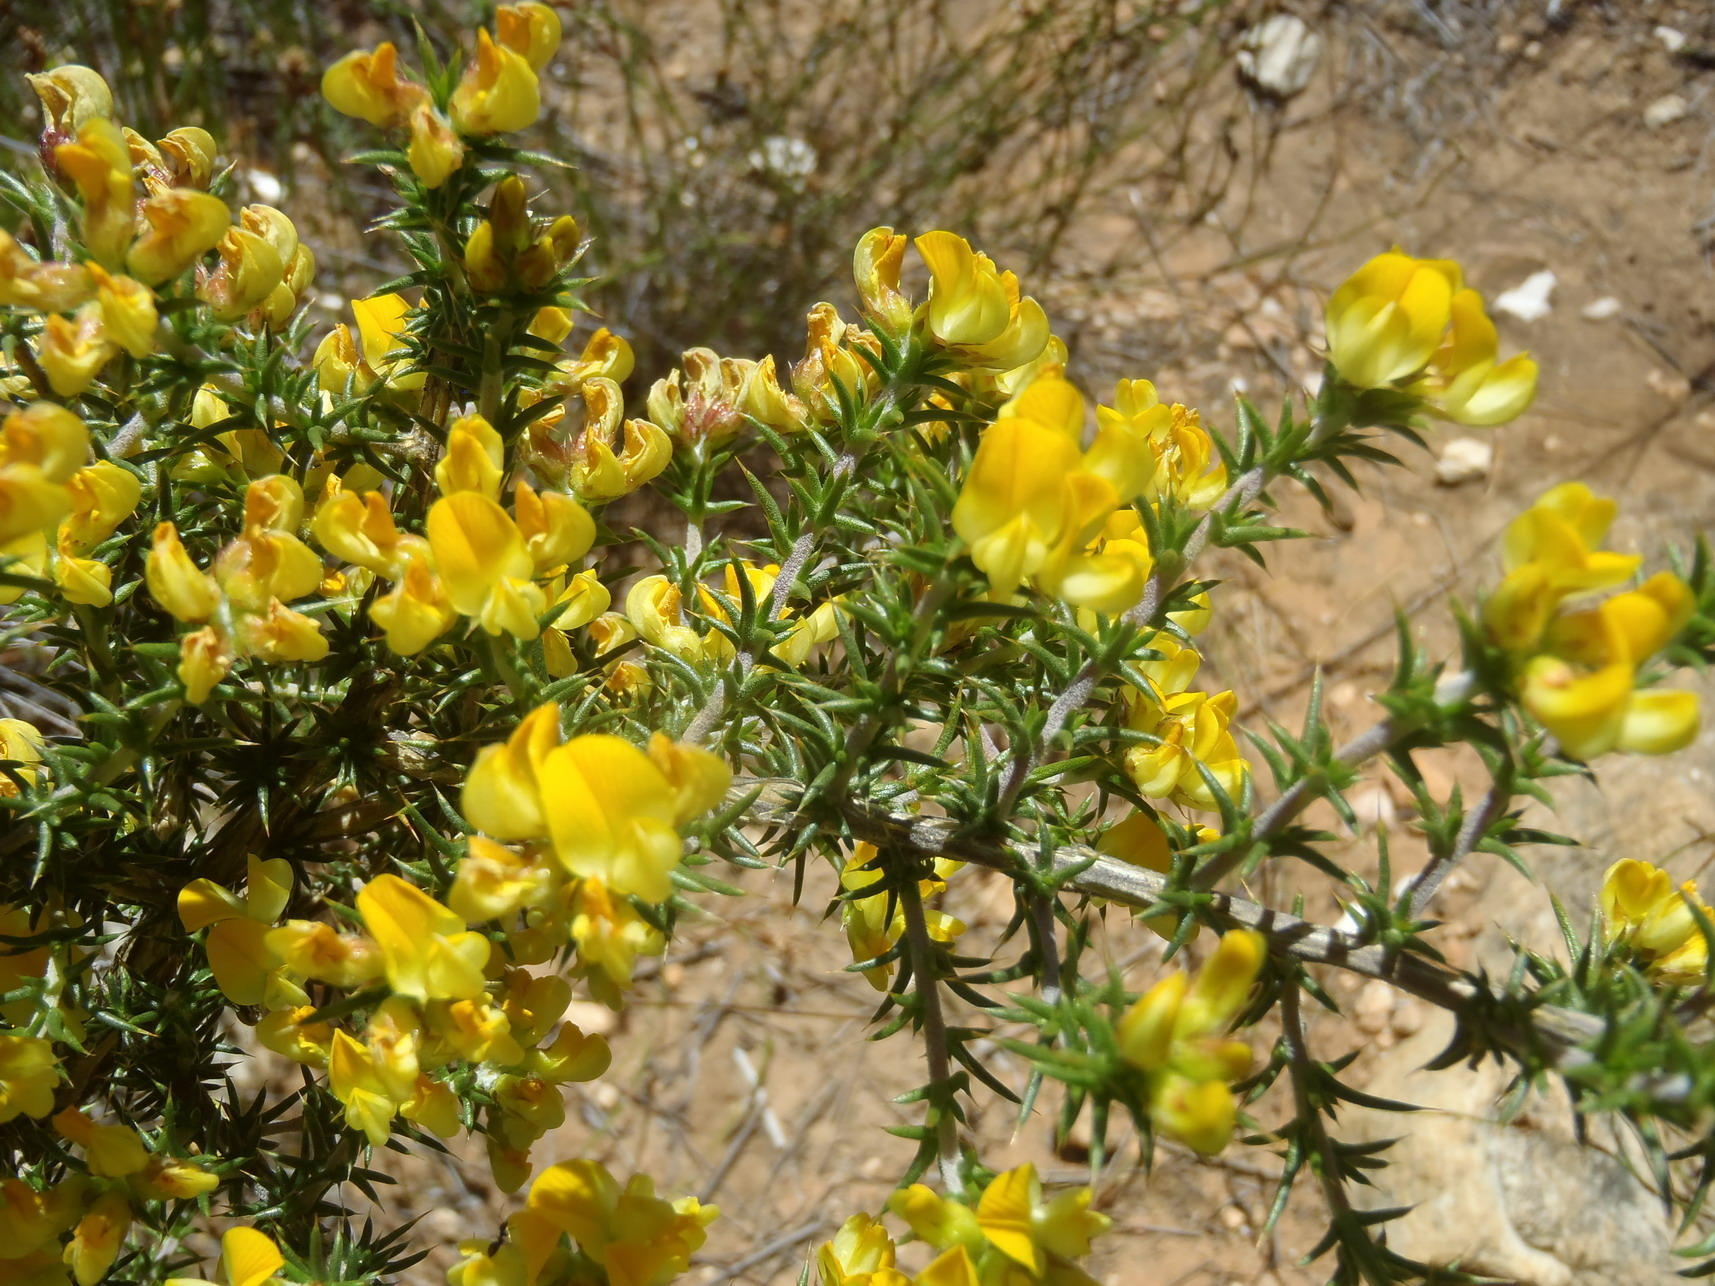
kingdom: Plantae
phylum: Tracheophyta
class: Magnoliopsida
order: Fabales
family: Fabaceae
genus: Aspalathus
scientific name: Aspalathus collina
